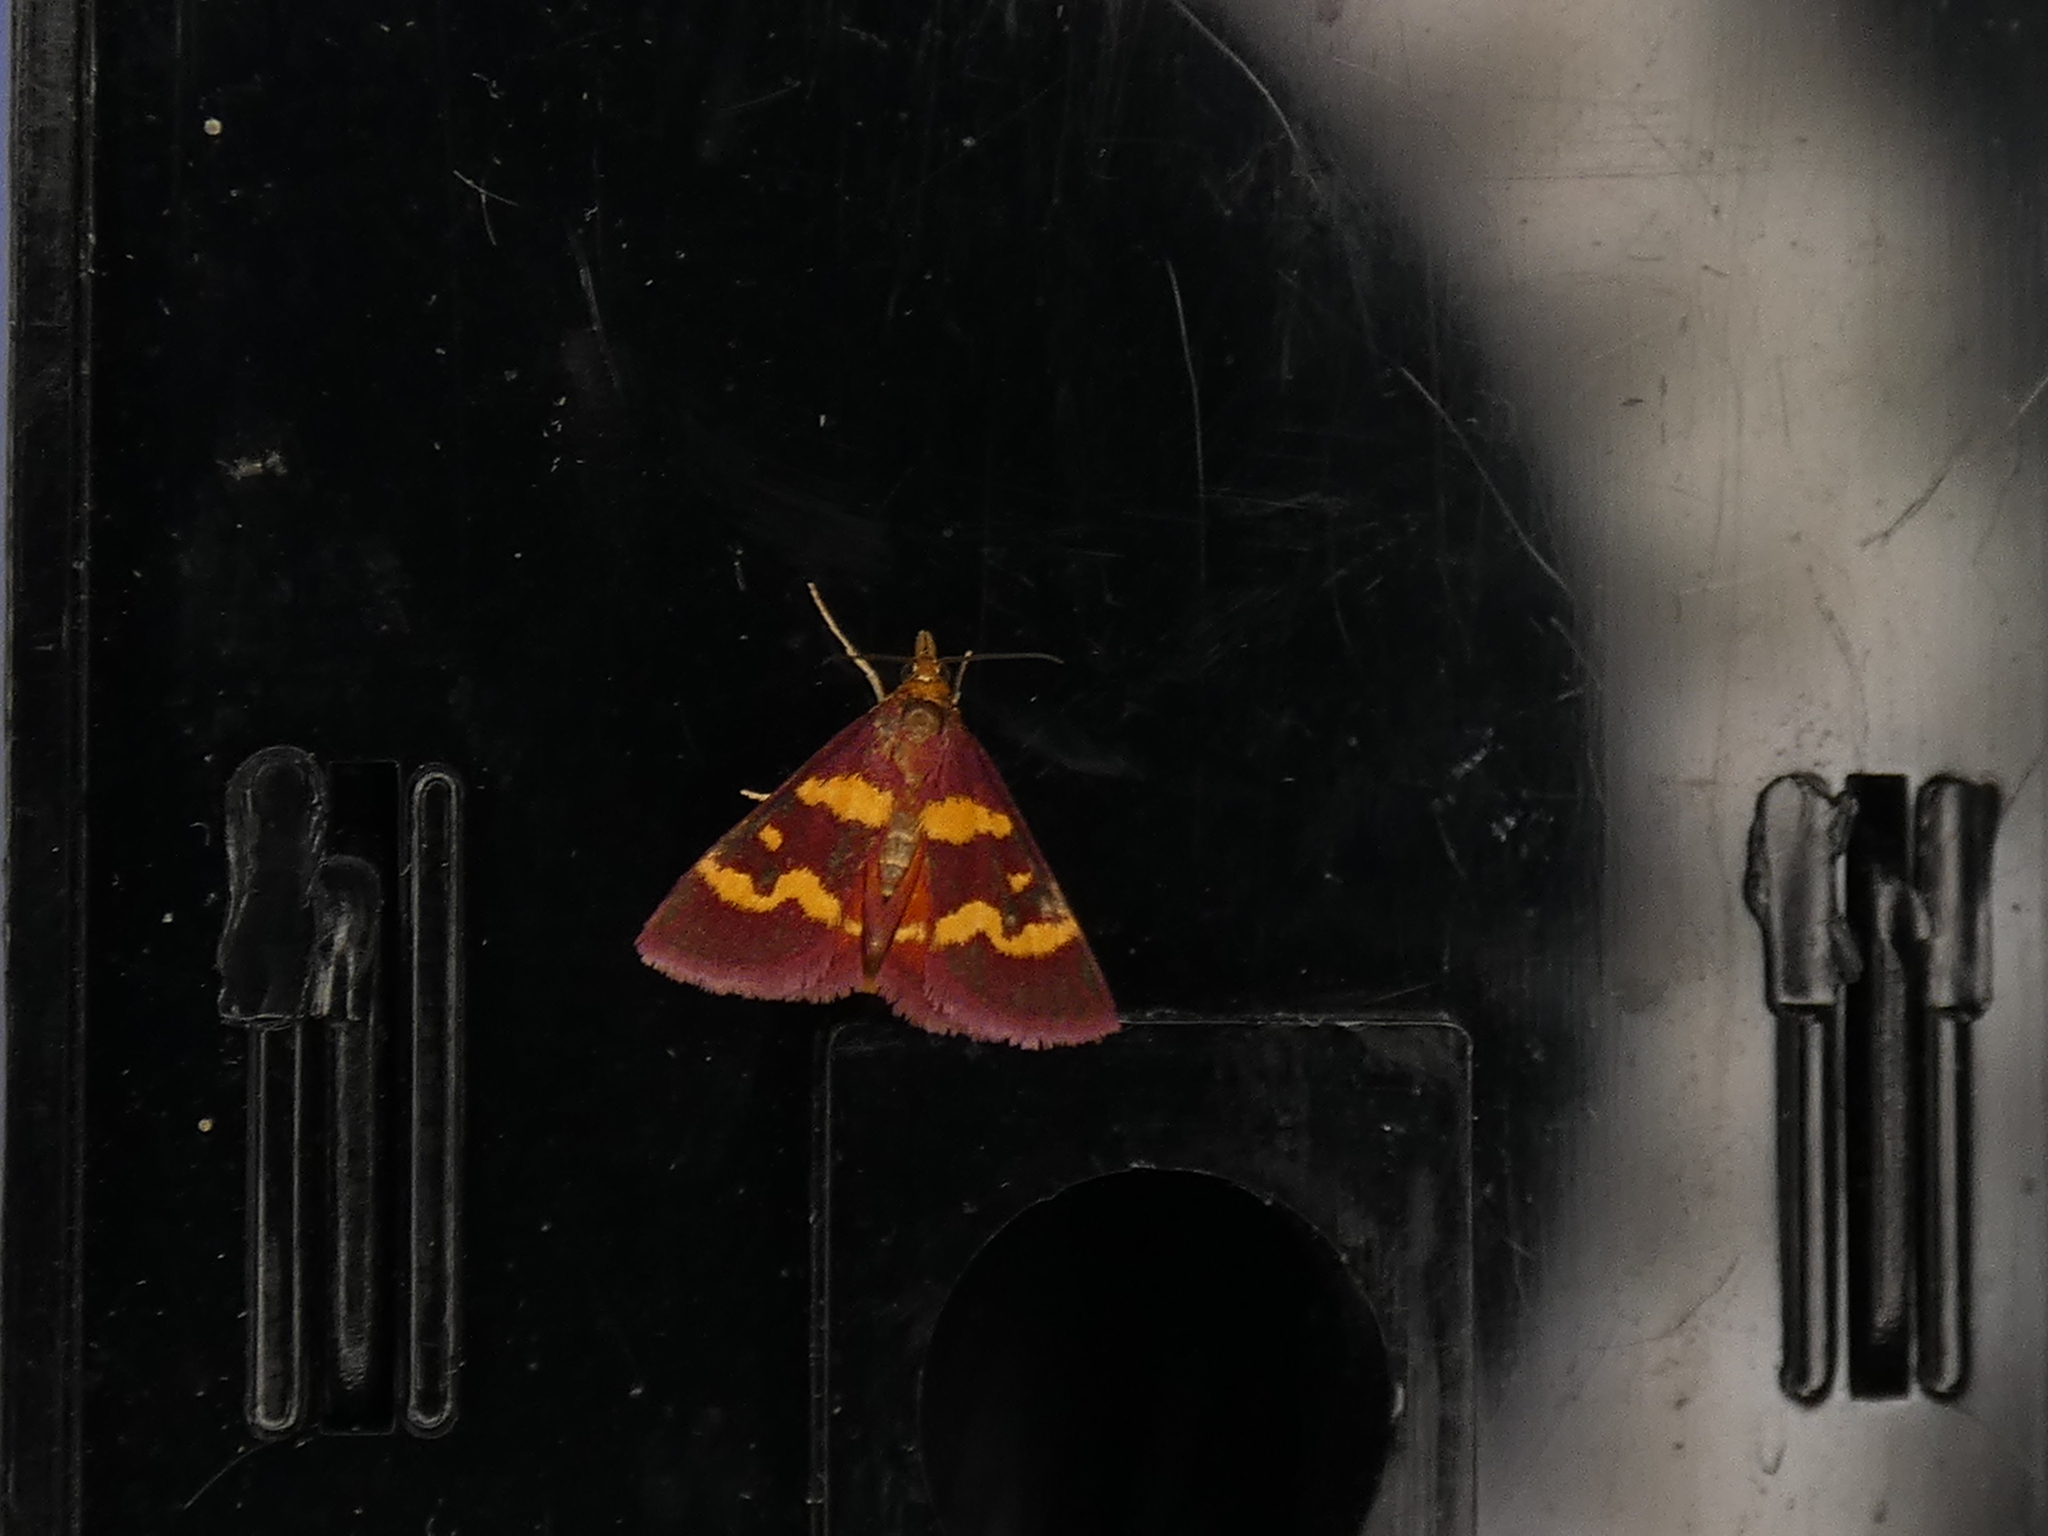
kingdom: Animalia
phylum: Arthropoda
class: Insecta
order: Lepidoptera
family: Crambidae
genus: Pyrausta
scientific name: Pyrausta tyralis
